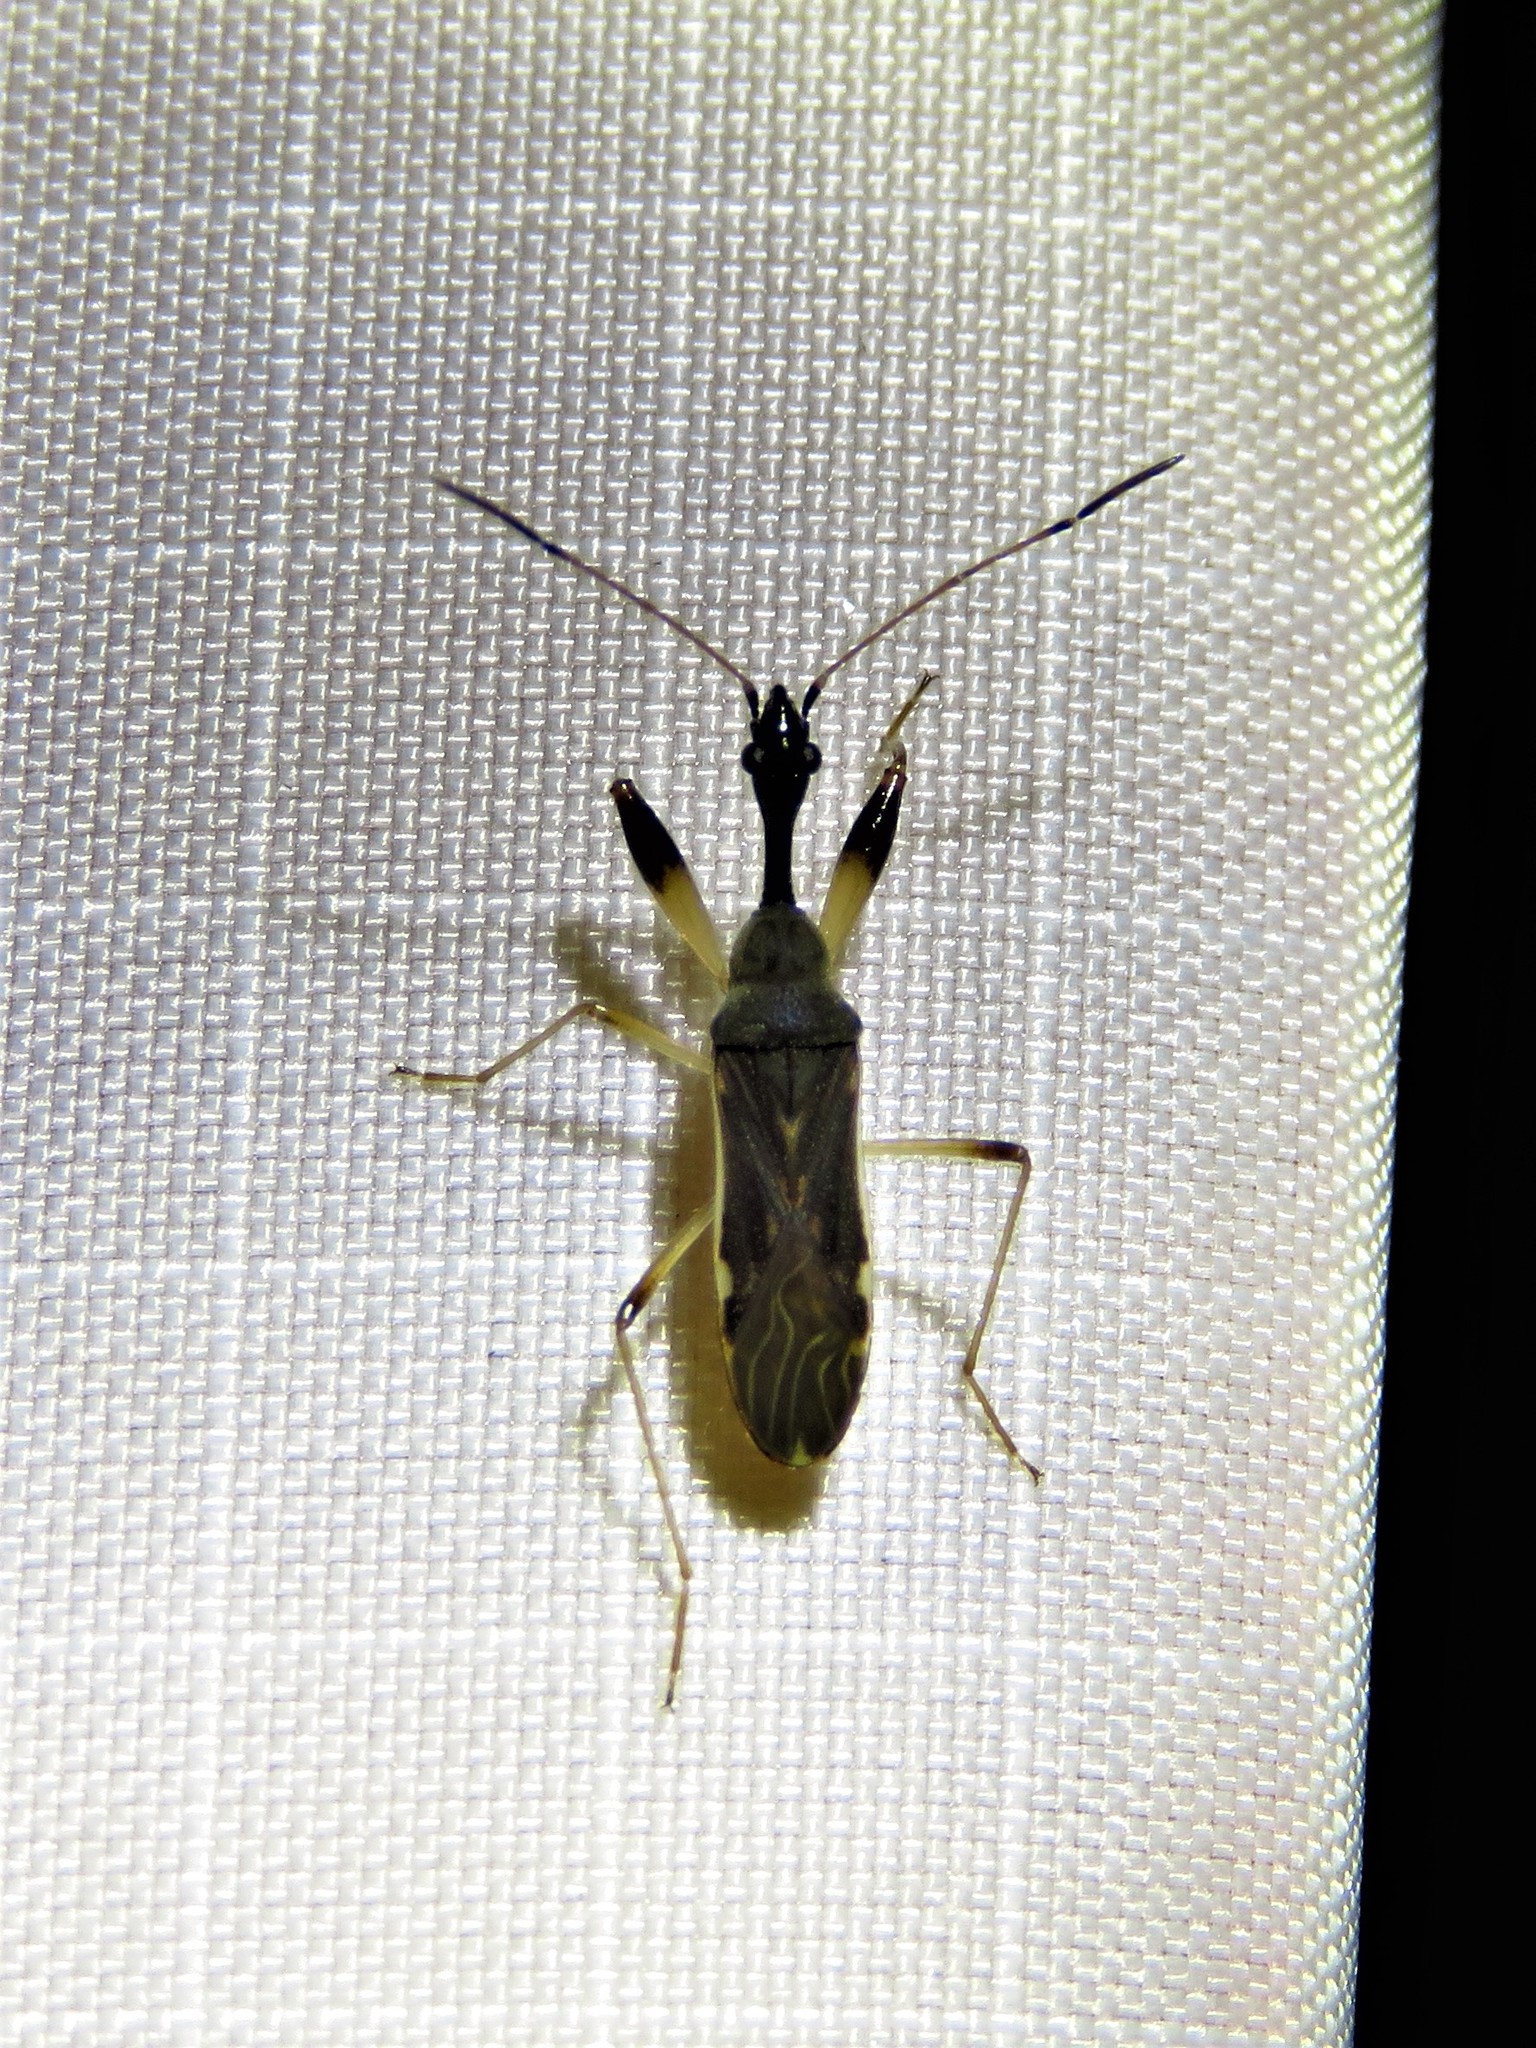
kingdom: Animalia
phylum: Arthropoda
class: Insecta
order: Hemiptera
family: Rhyparochromidae
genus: Myodocha
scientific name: Myodocha serripes
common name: Long-necked seed bug
